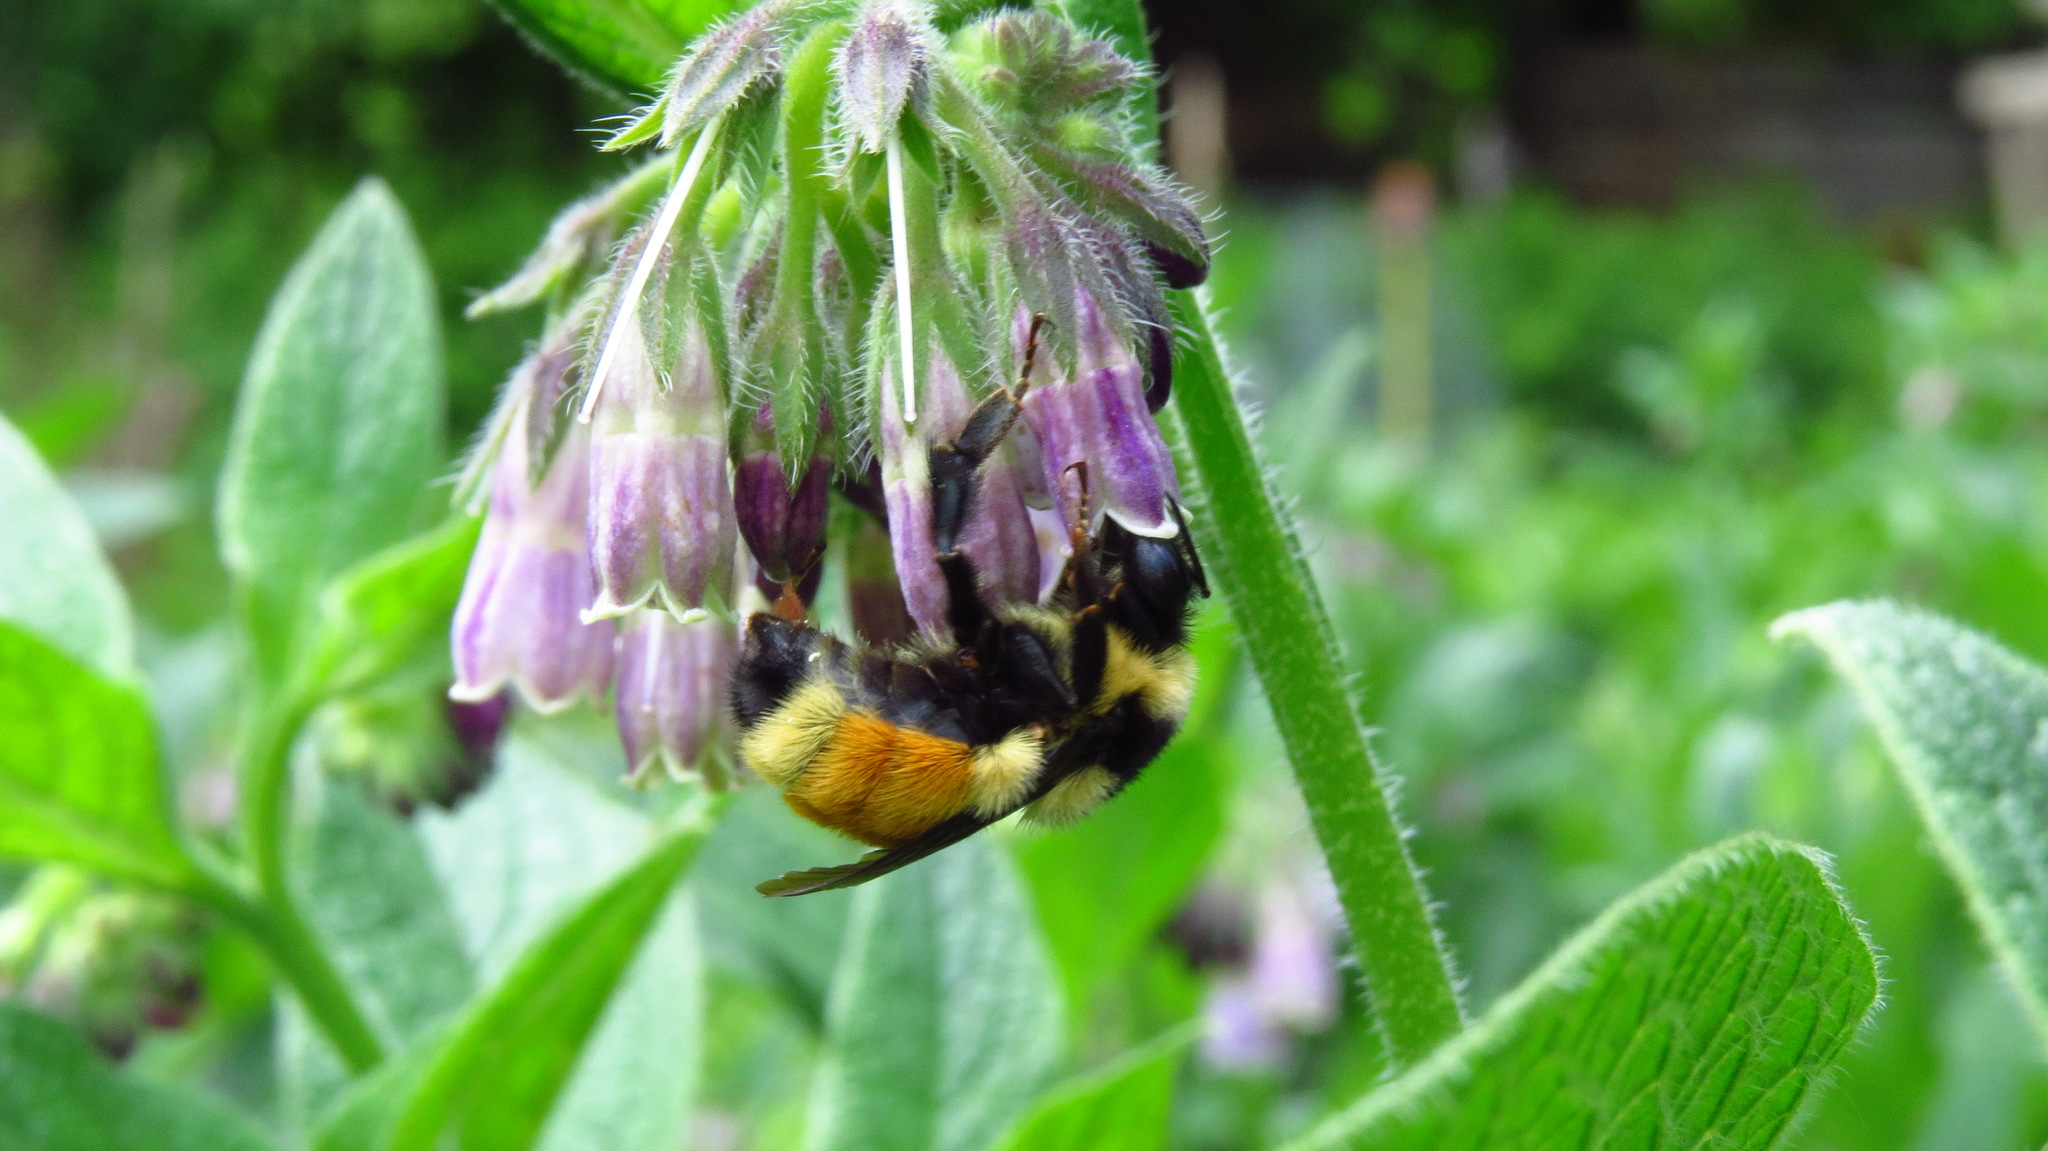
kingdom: Animalia
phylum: Arthropoda
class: Insecta
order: Hymenoptera
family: Apidae
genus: Bombus
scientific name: Bombus ternarius
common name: Tri-colored bumble bee
